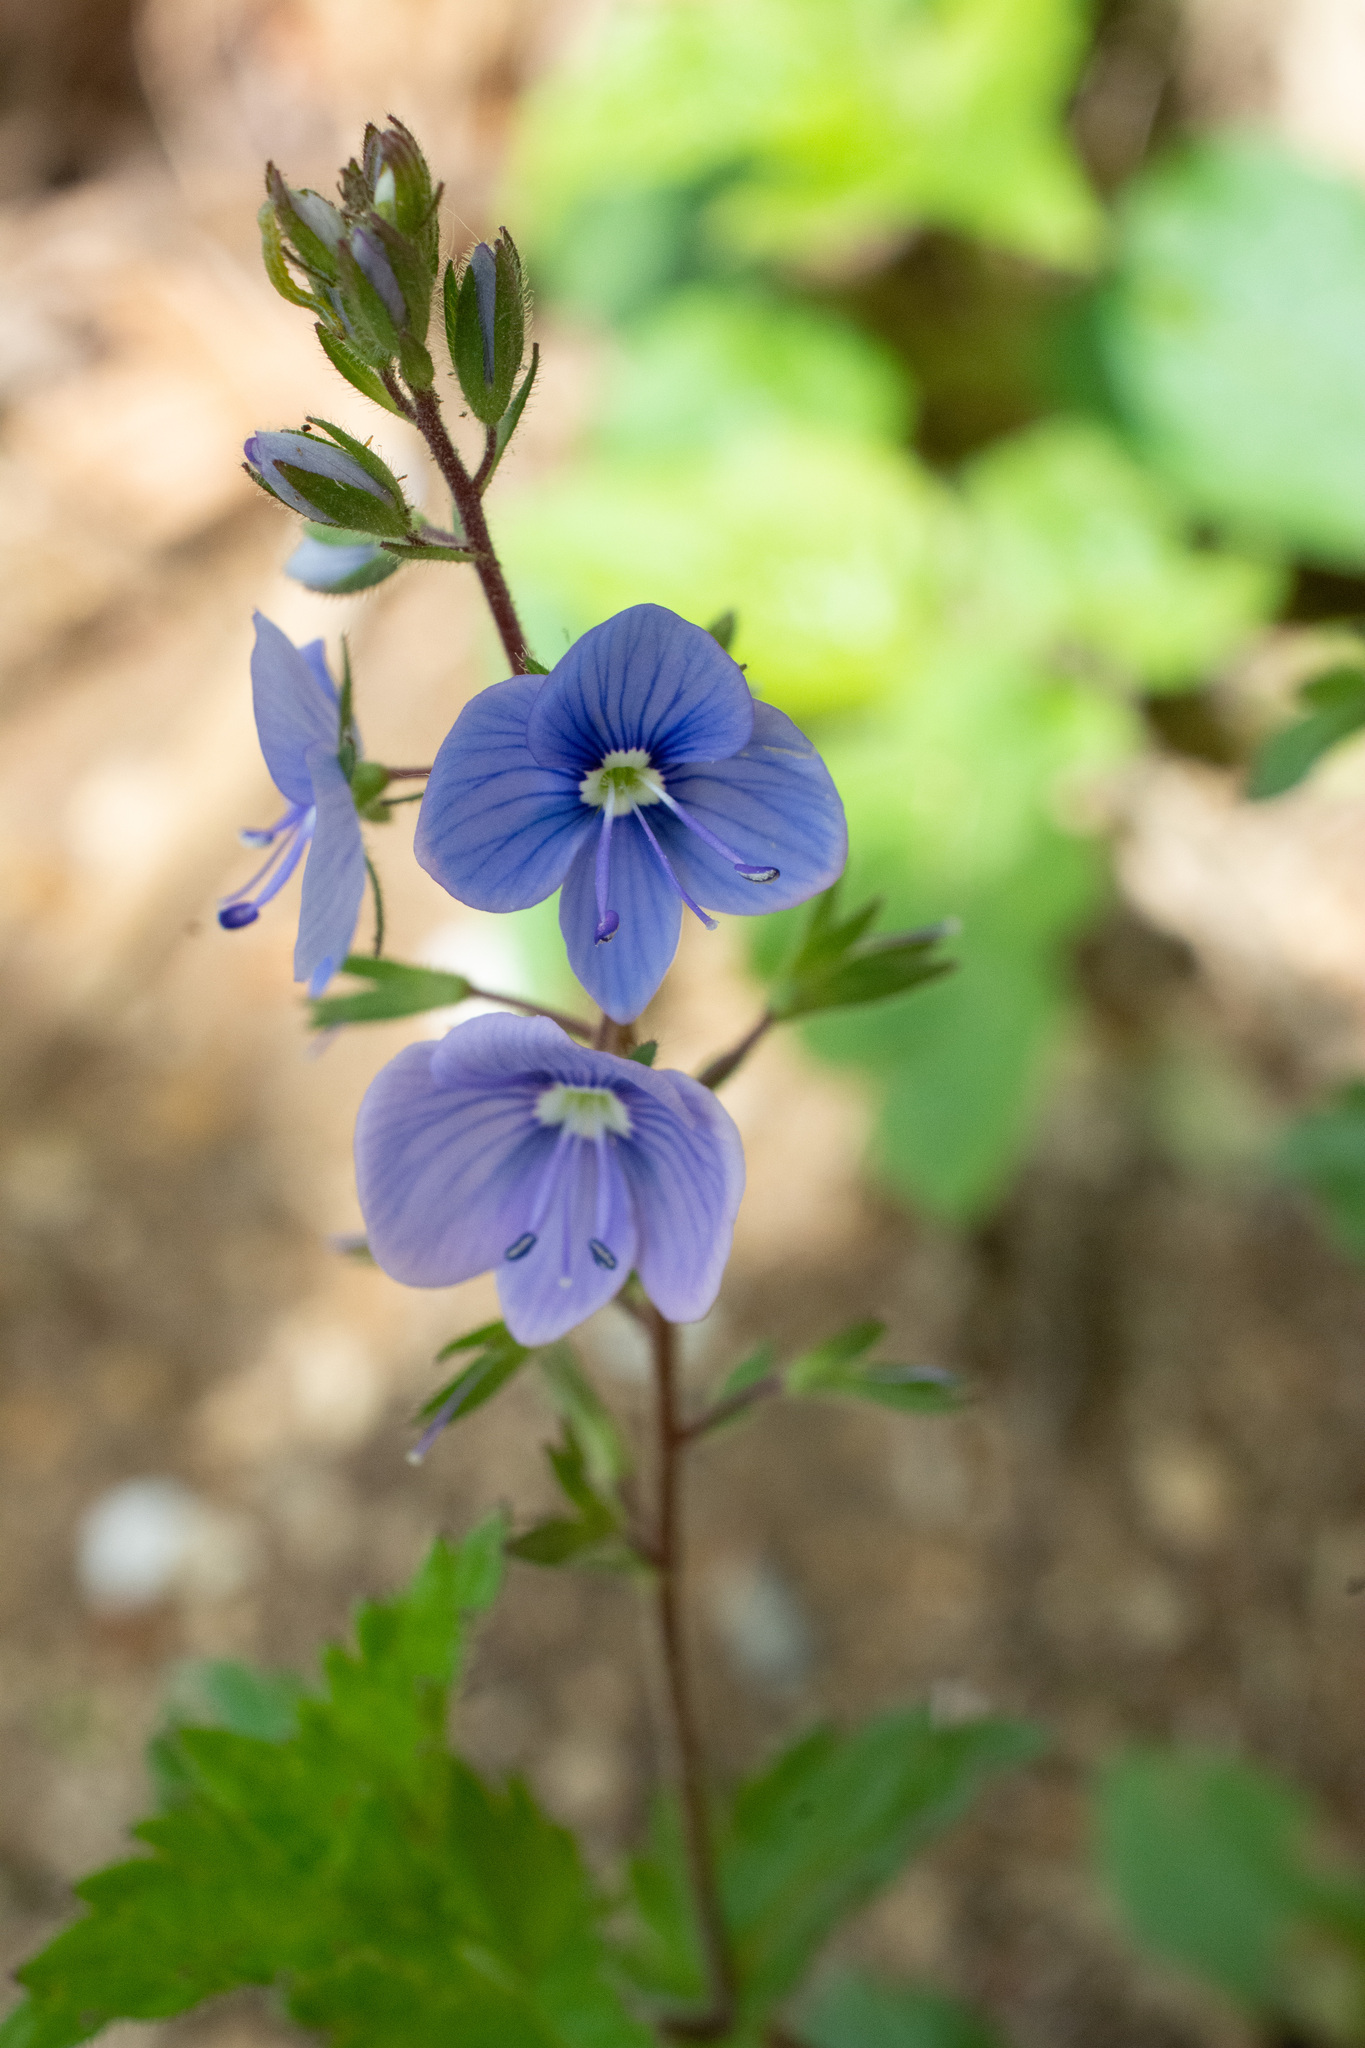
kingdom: Plantae
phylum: Tracheophyta
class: Magnoliopsida
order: Lamiales
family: Plantaginaceae
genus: Veronica
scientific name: Veronica chamaedrys
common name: Germander speedwell
